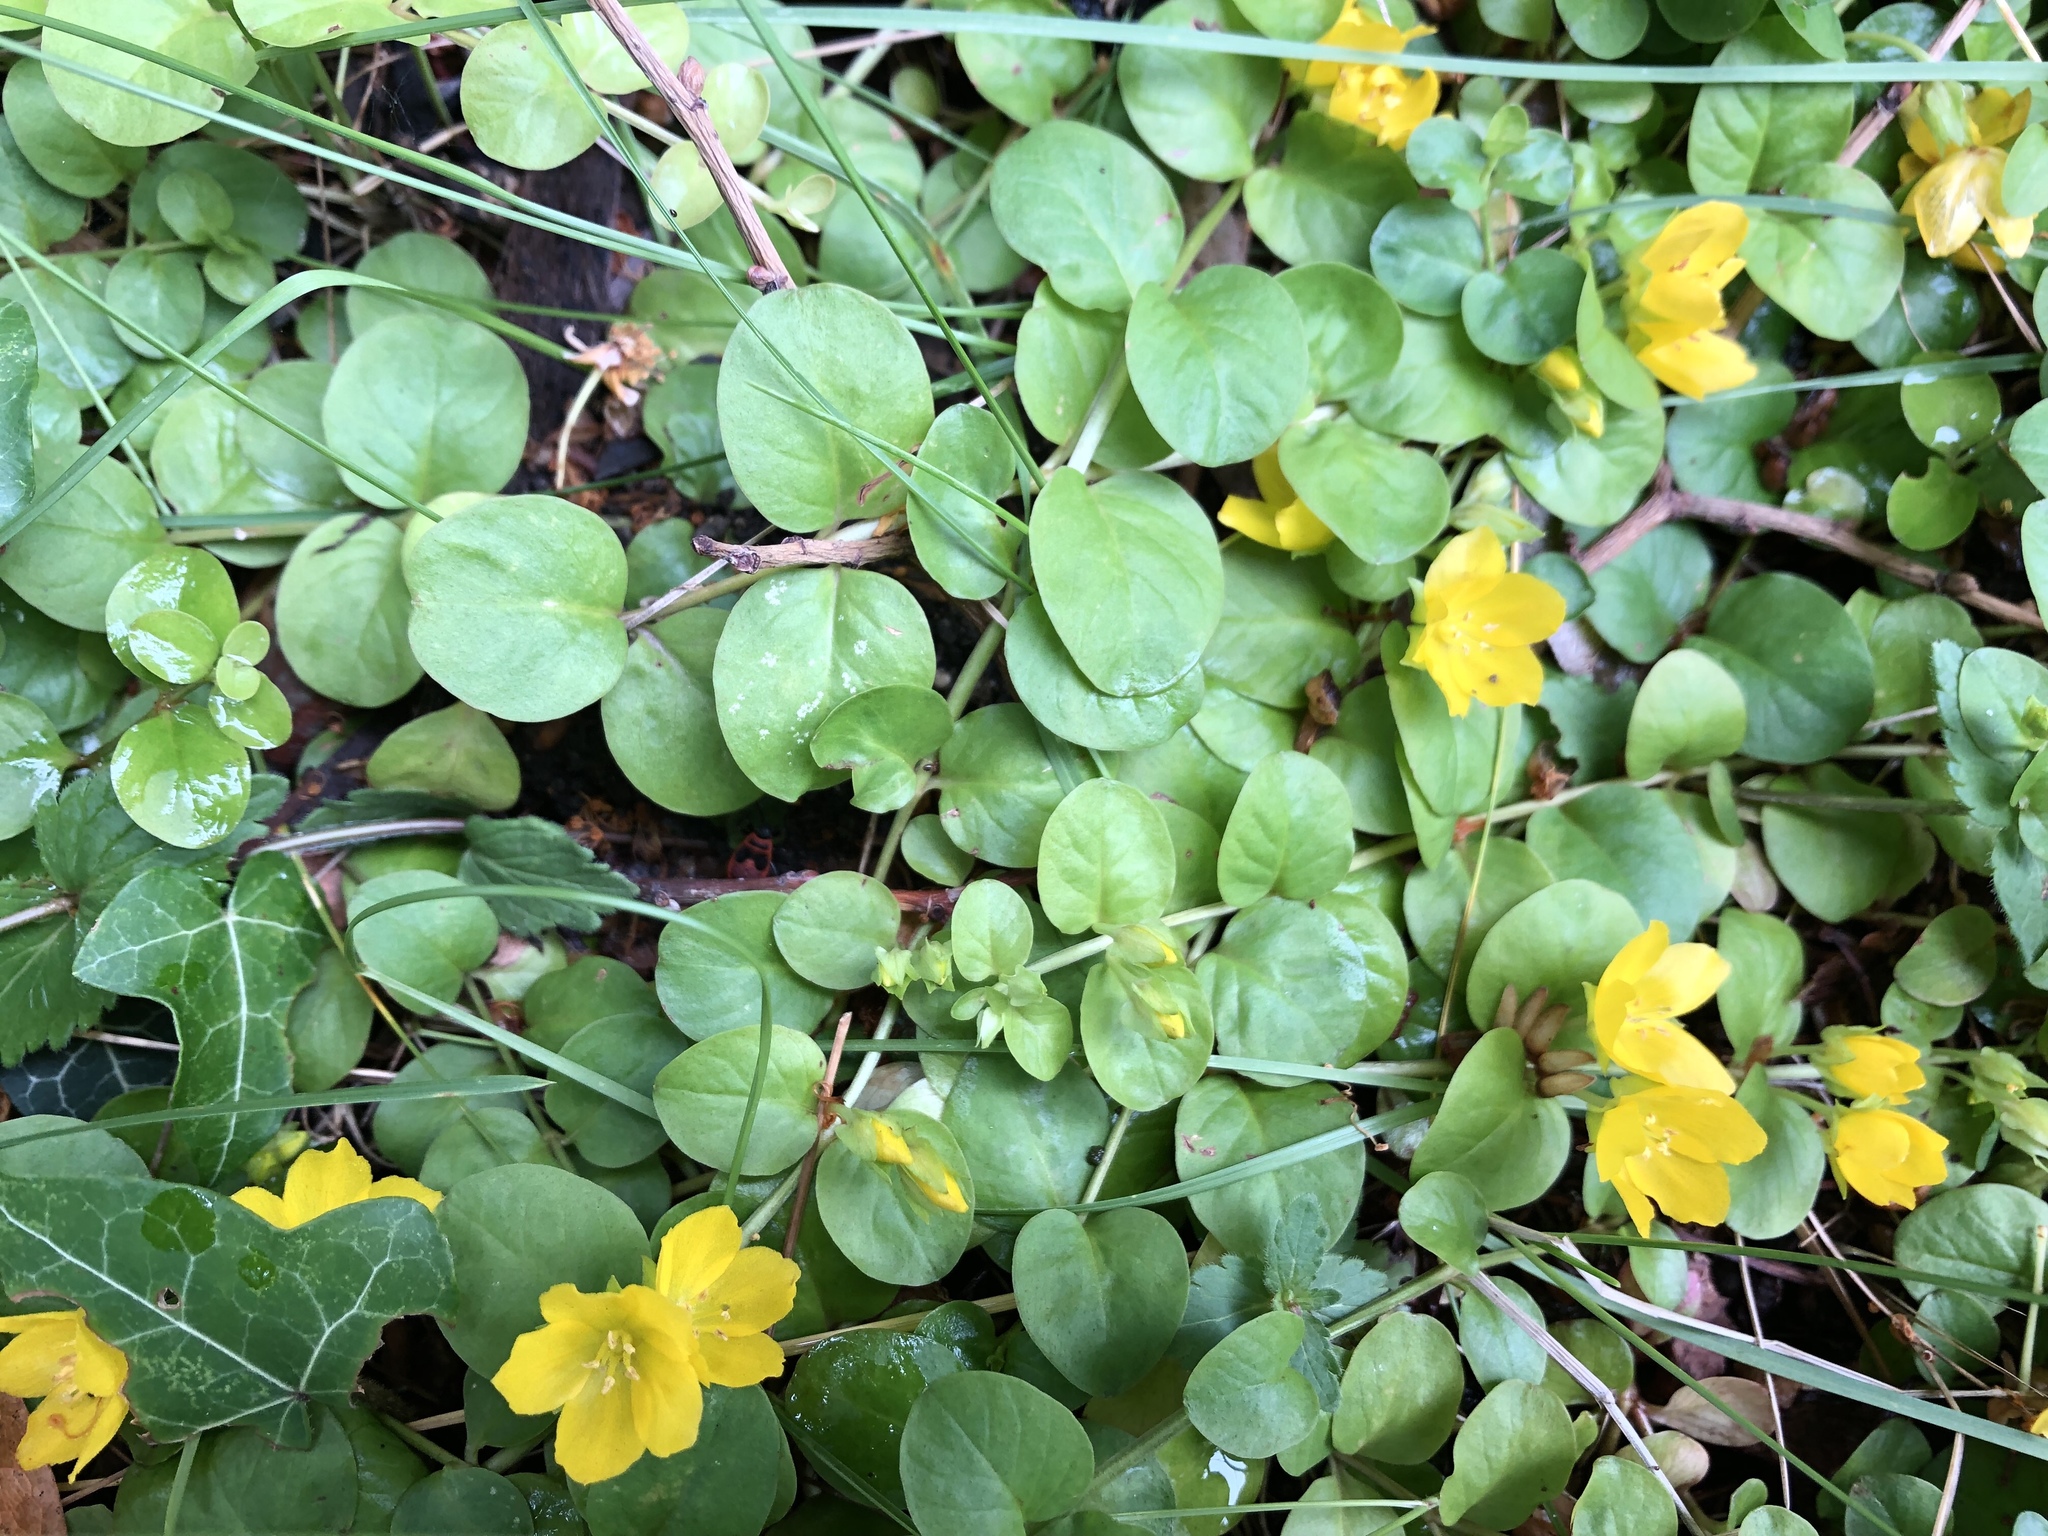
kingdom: Plantae
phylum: Tracheophyta
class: Magnoliopsida
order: Ericales
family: Primulaceae
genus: Lysimachia
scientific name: Lysimachia nummularia
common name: Moneywort
